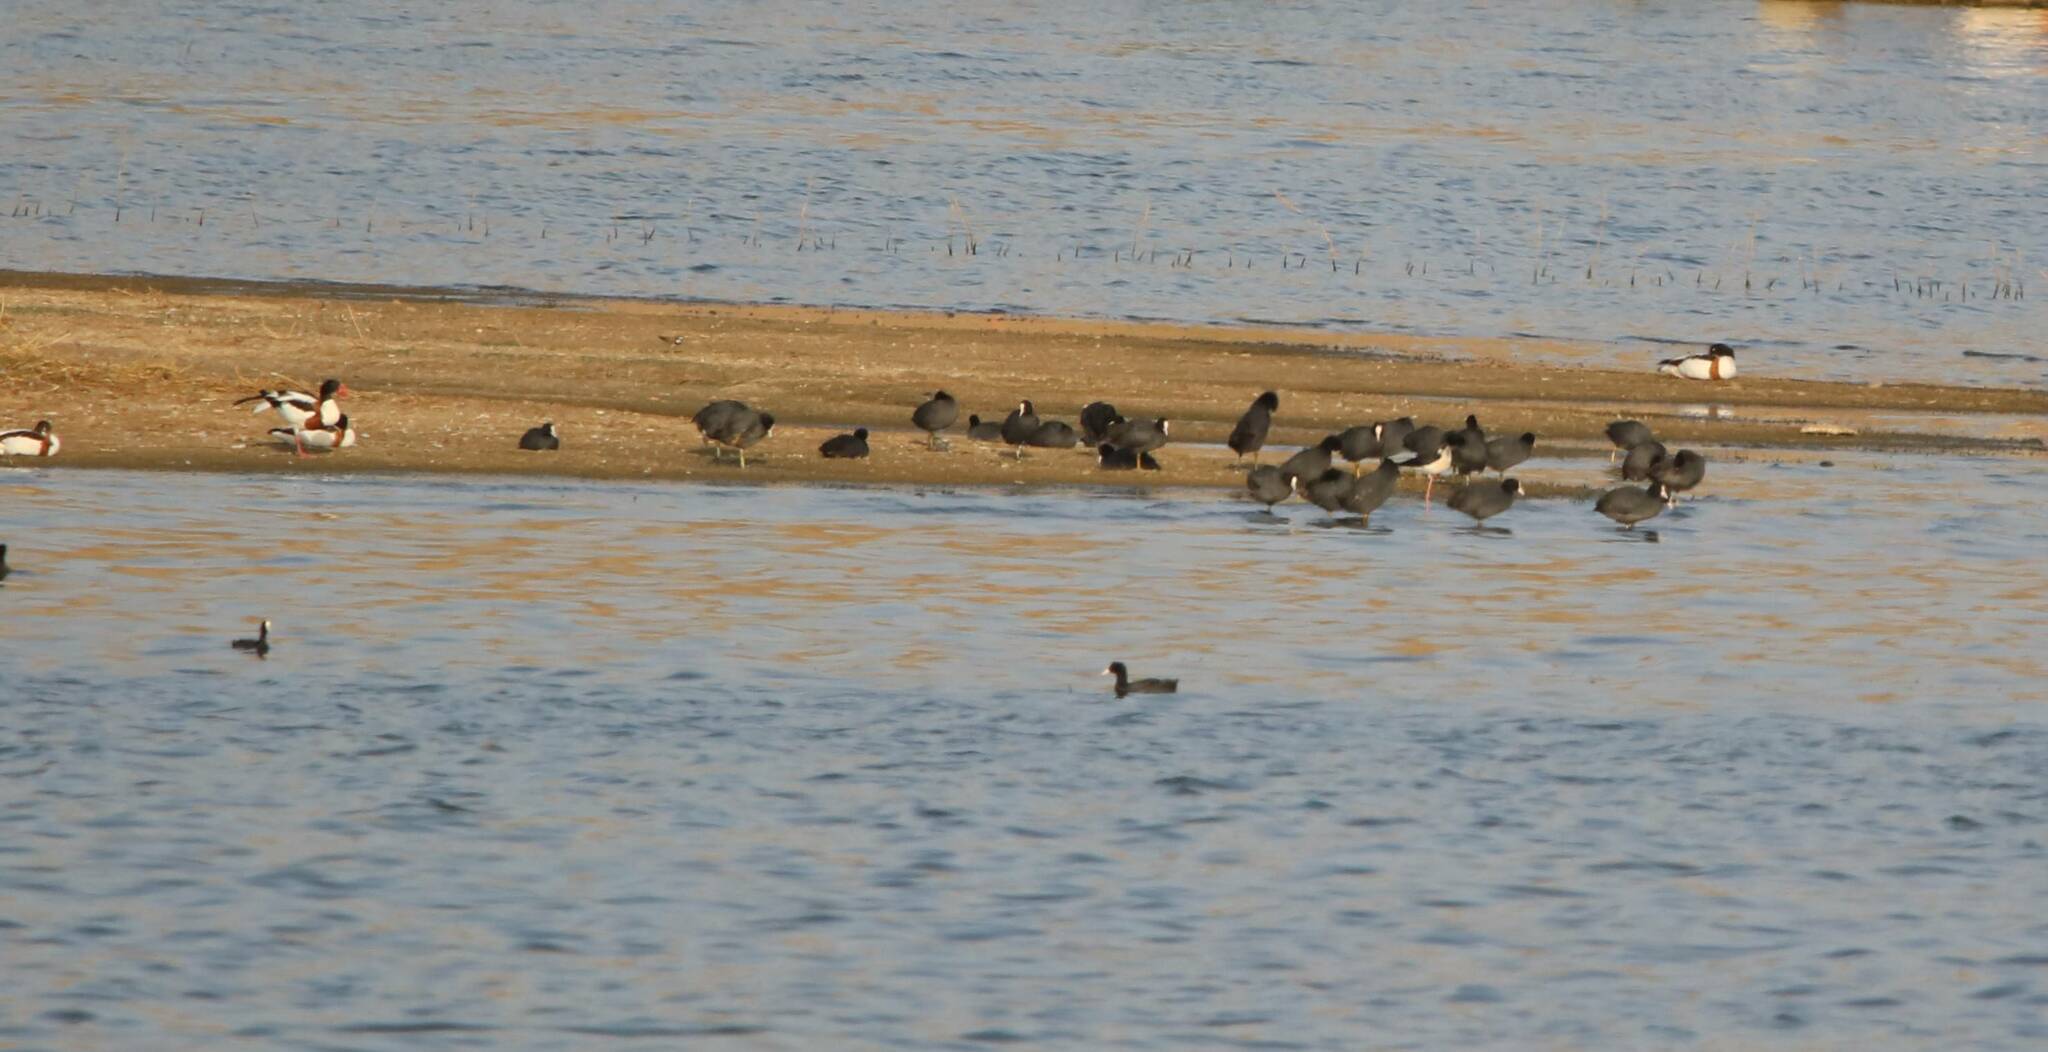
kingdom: Animalia
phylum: Chordata
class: Aves
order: Gruiformes
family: Rallidae
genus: Fulica
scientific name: Fulica atra
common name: Eurasian coot
